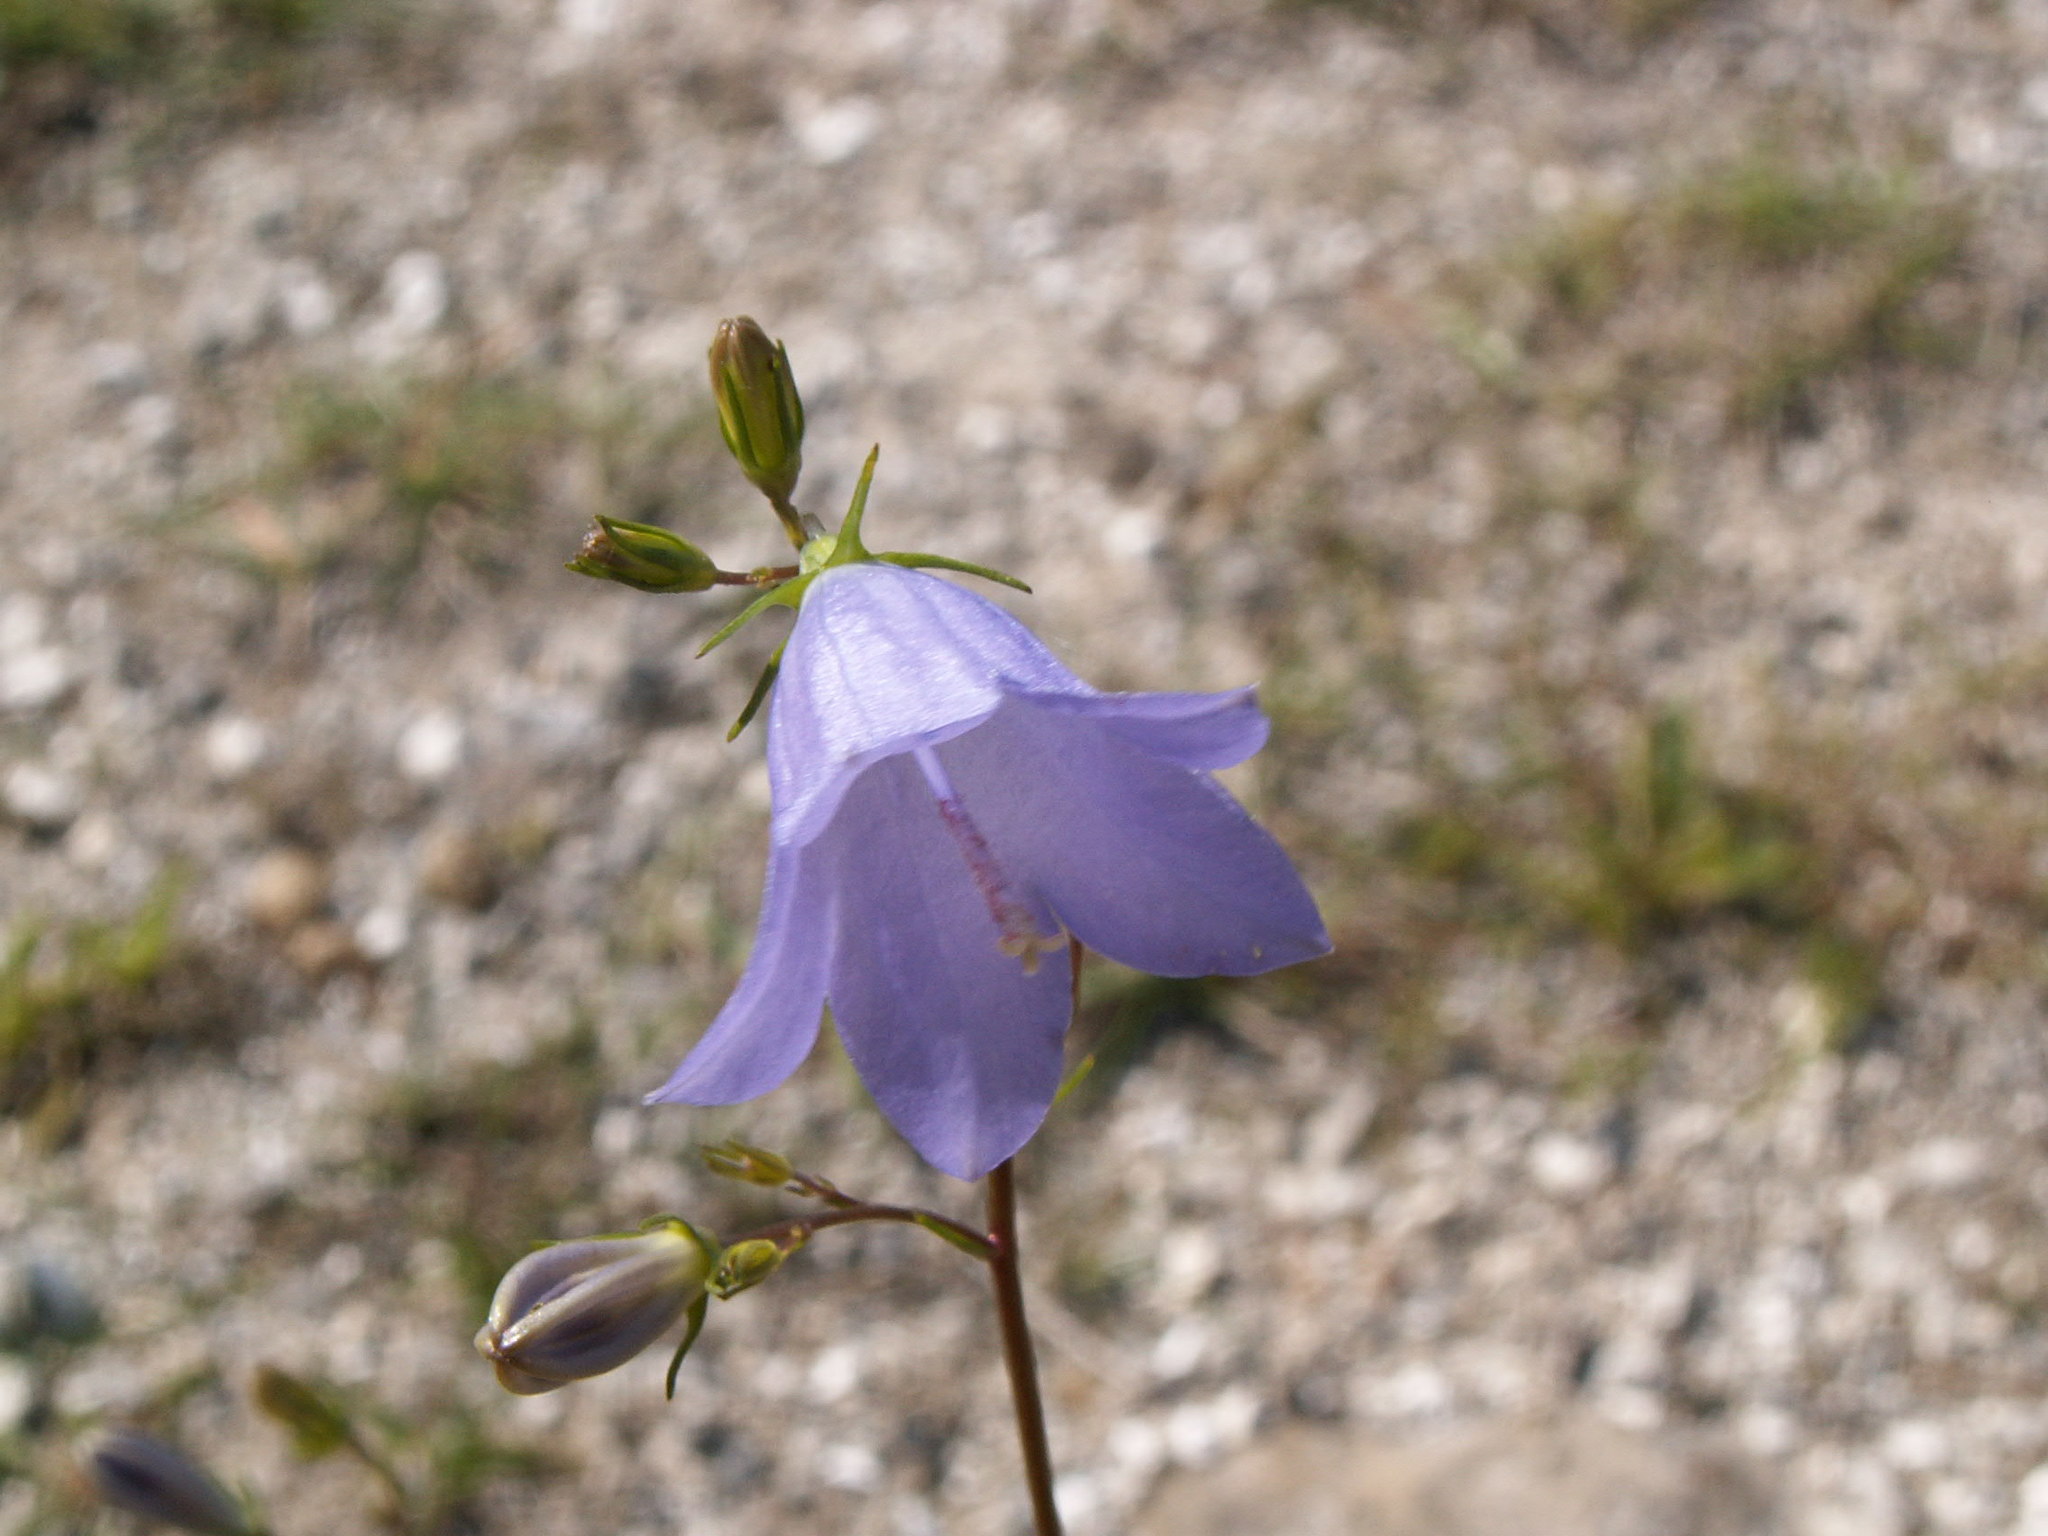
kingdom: Plantae
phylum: Tracheophyta
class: Magnoliopsida
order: Asterales
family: Campanulaceae
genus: Campanula
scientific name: Campanula rotundifolia
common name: Harebell
